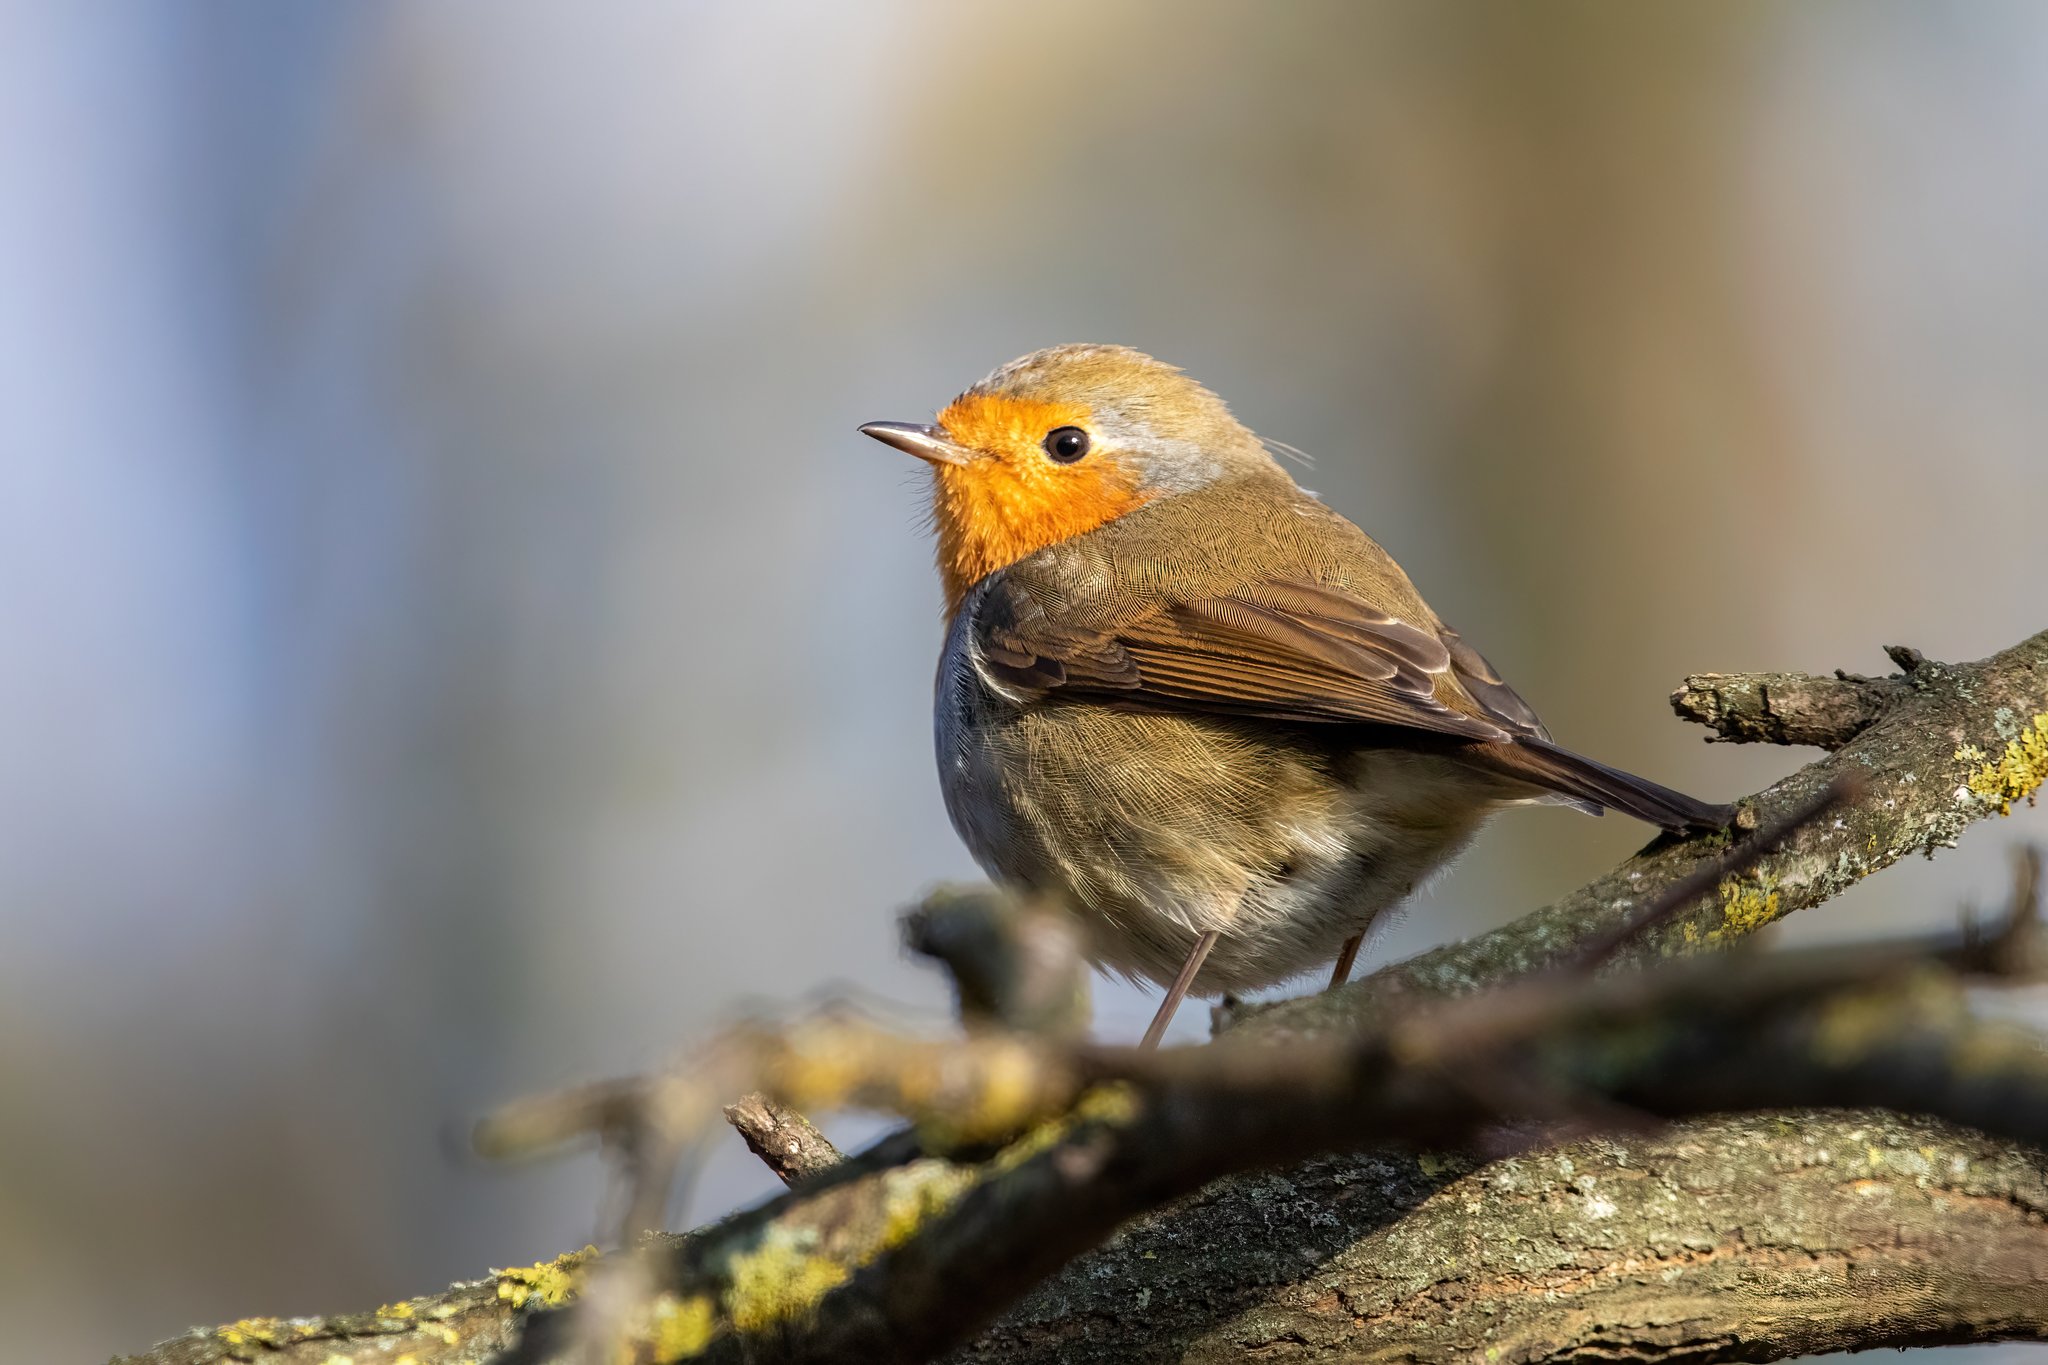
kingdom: Animalia
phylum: Chordata
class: Aves
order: Passeriformes
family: Muscicapidae
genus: Erithacus
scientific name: Erithacus rubecula
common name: European robin
